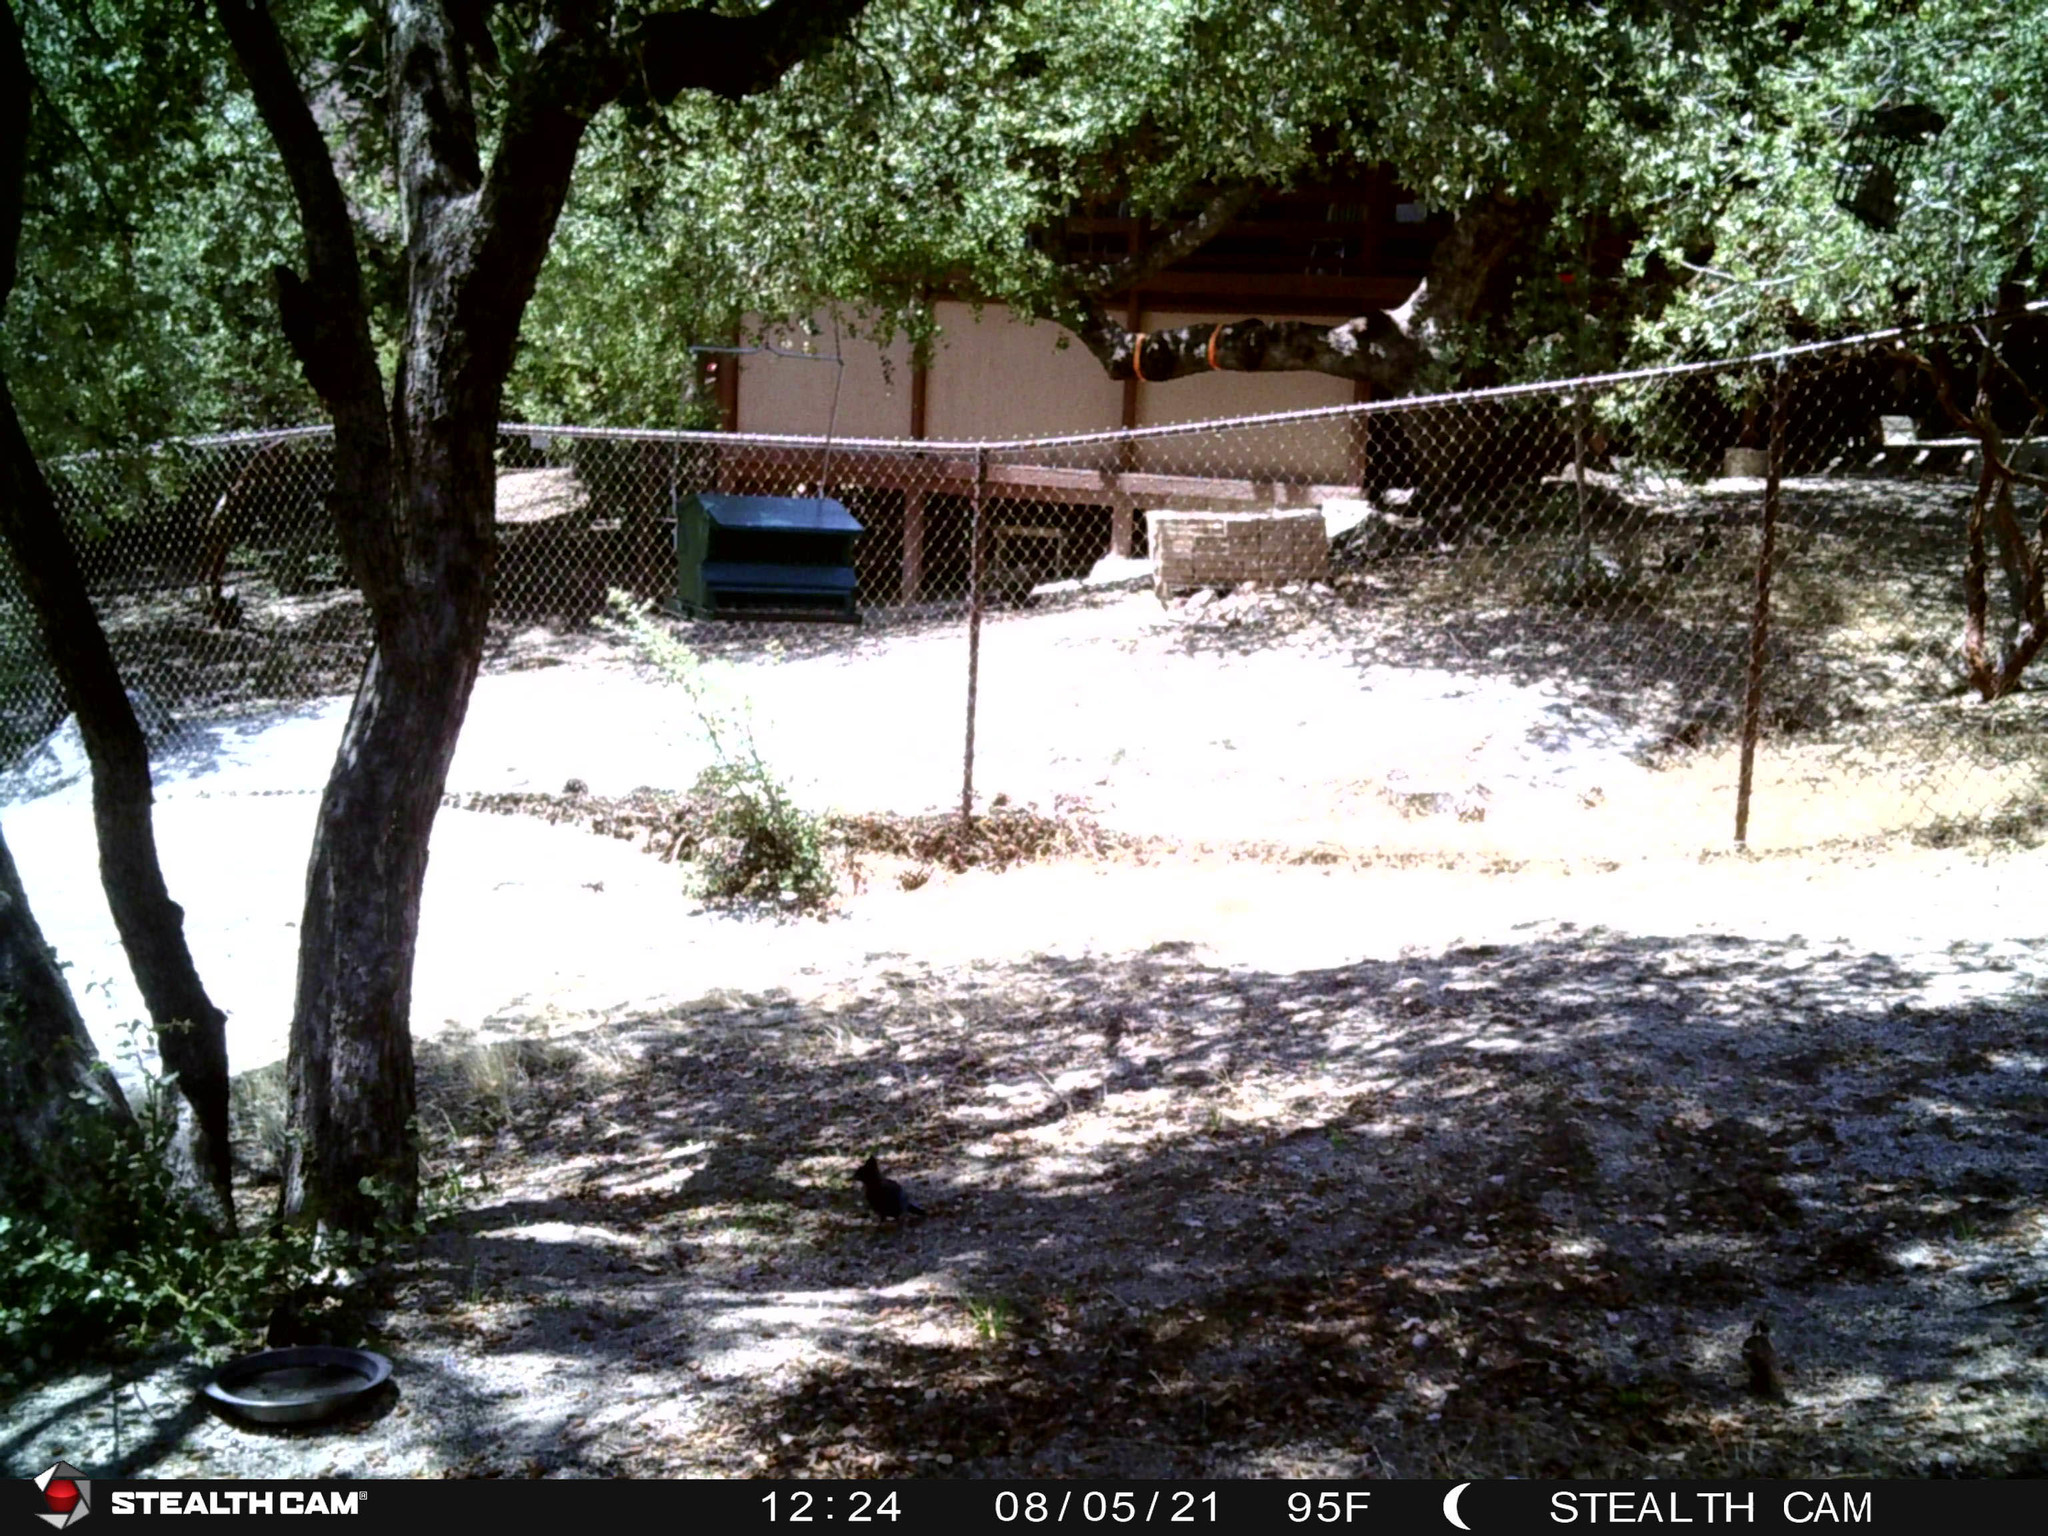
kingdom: Animalia
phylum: Chordata
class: Aves
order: Passeriformes
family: Corvidae
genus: Cyanocitta
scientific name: Cyanocitta stelleri
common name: Steller's jay
